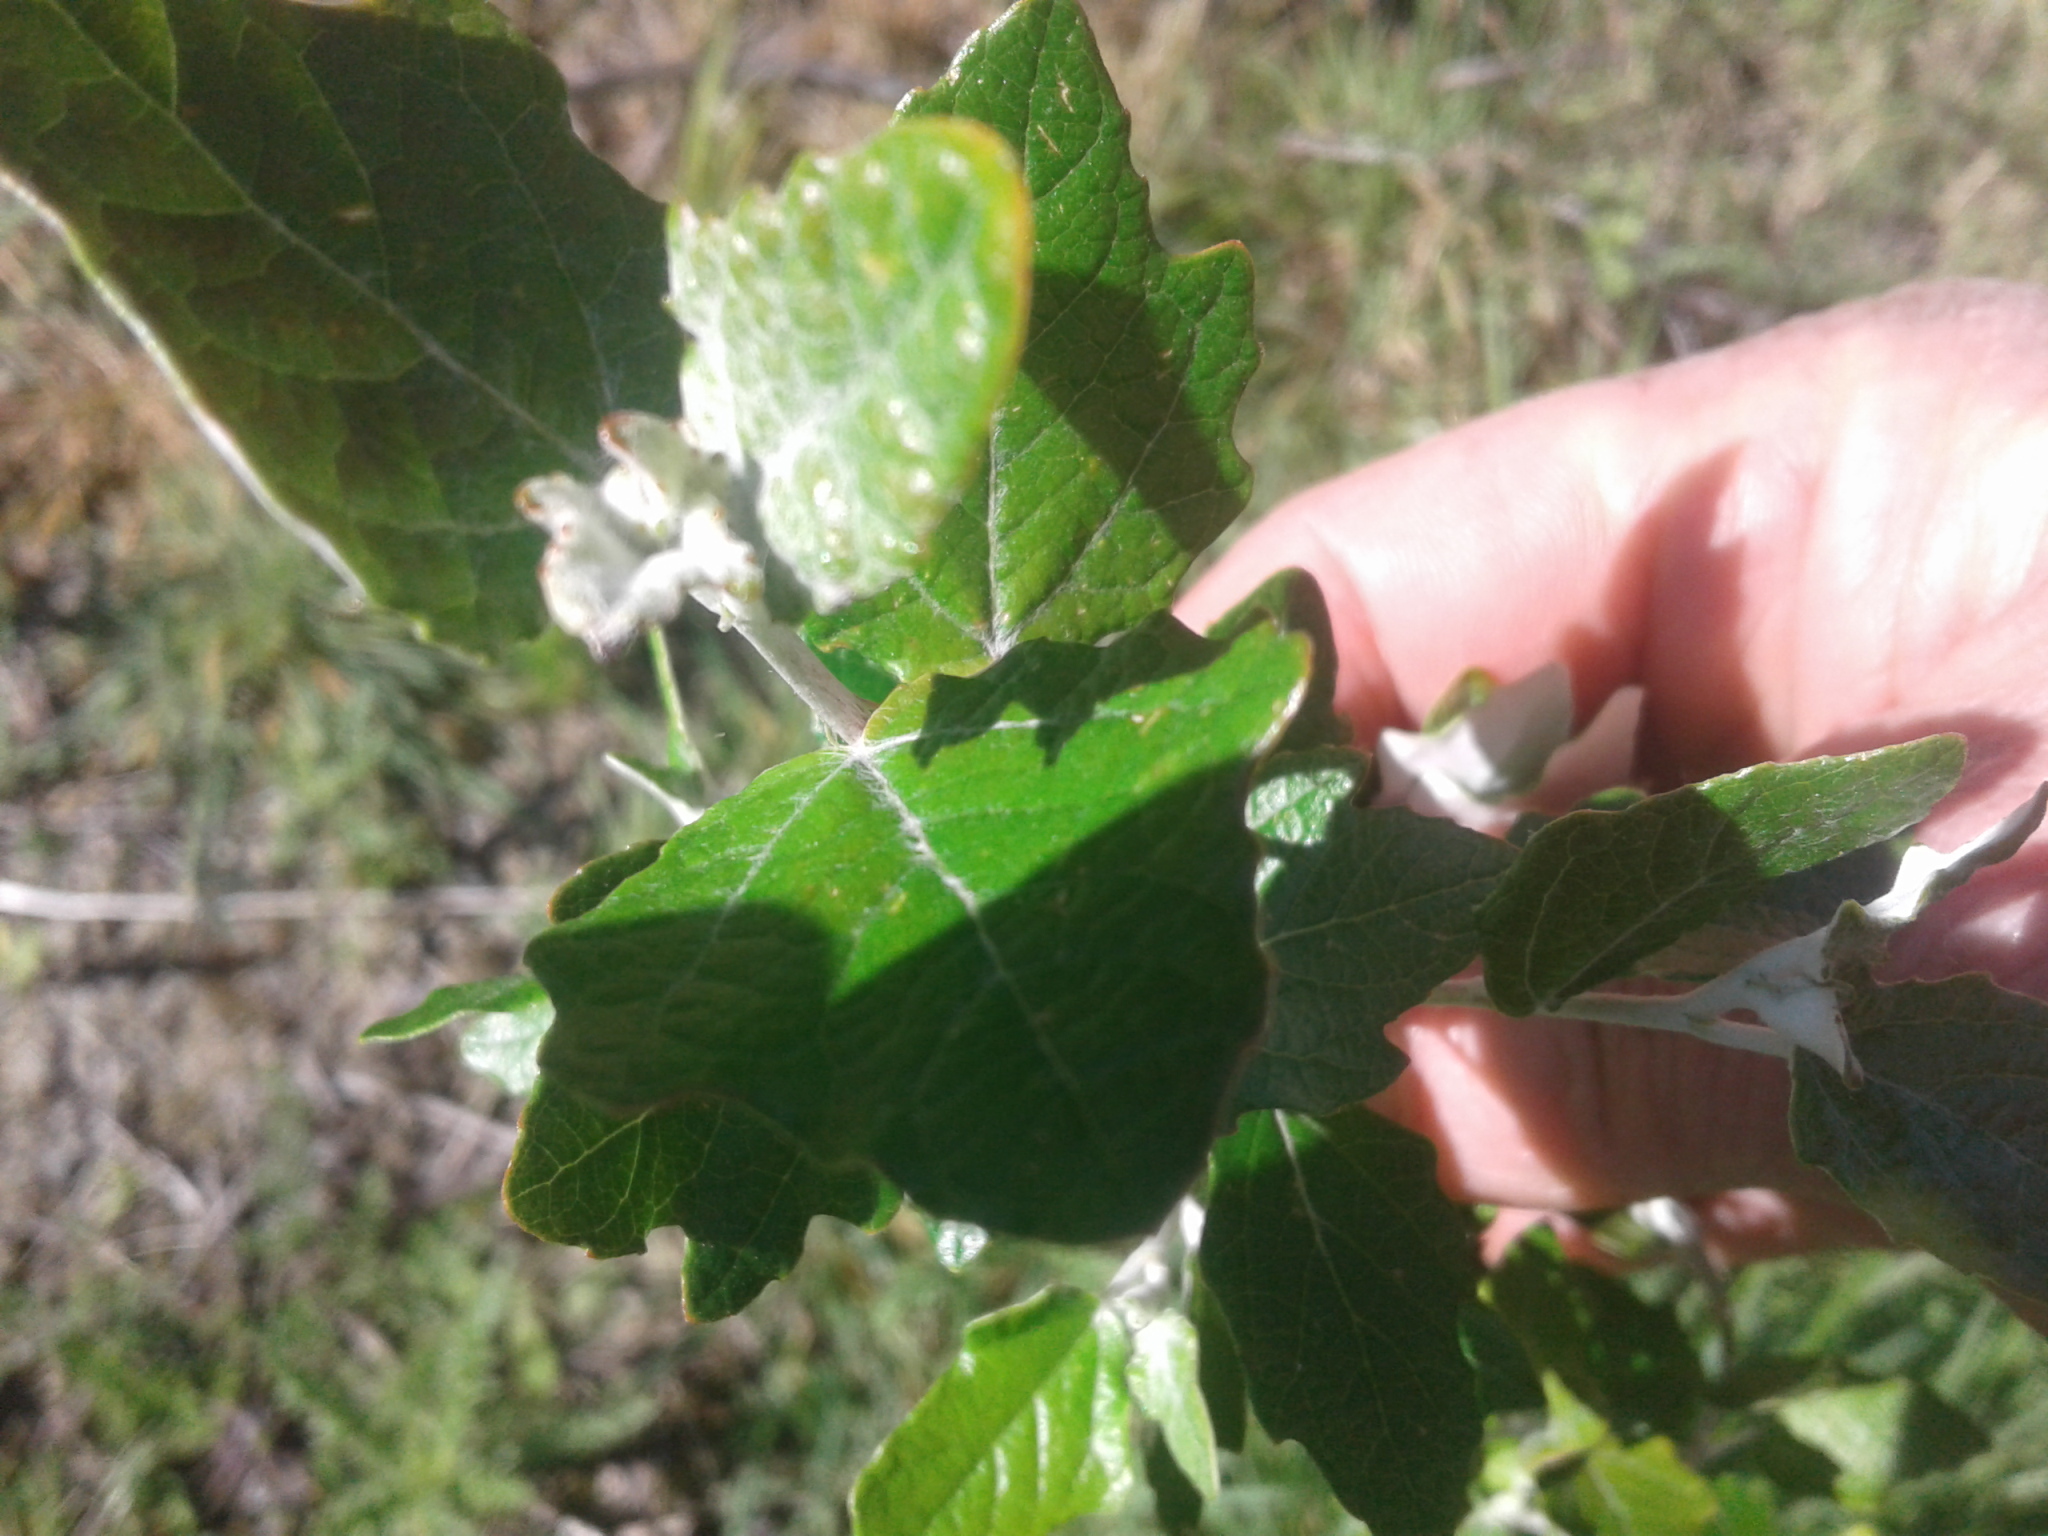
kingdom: Plantae
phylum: Tracheophyta
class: Magnoliopsida
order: Malpighiales
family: Salicaceae
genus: Populus
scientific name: Populus alba
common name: White poplar
